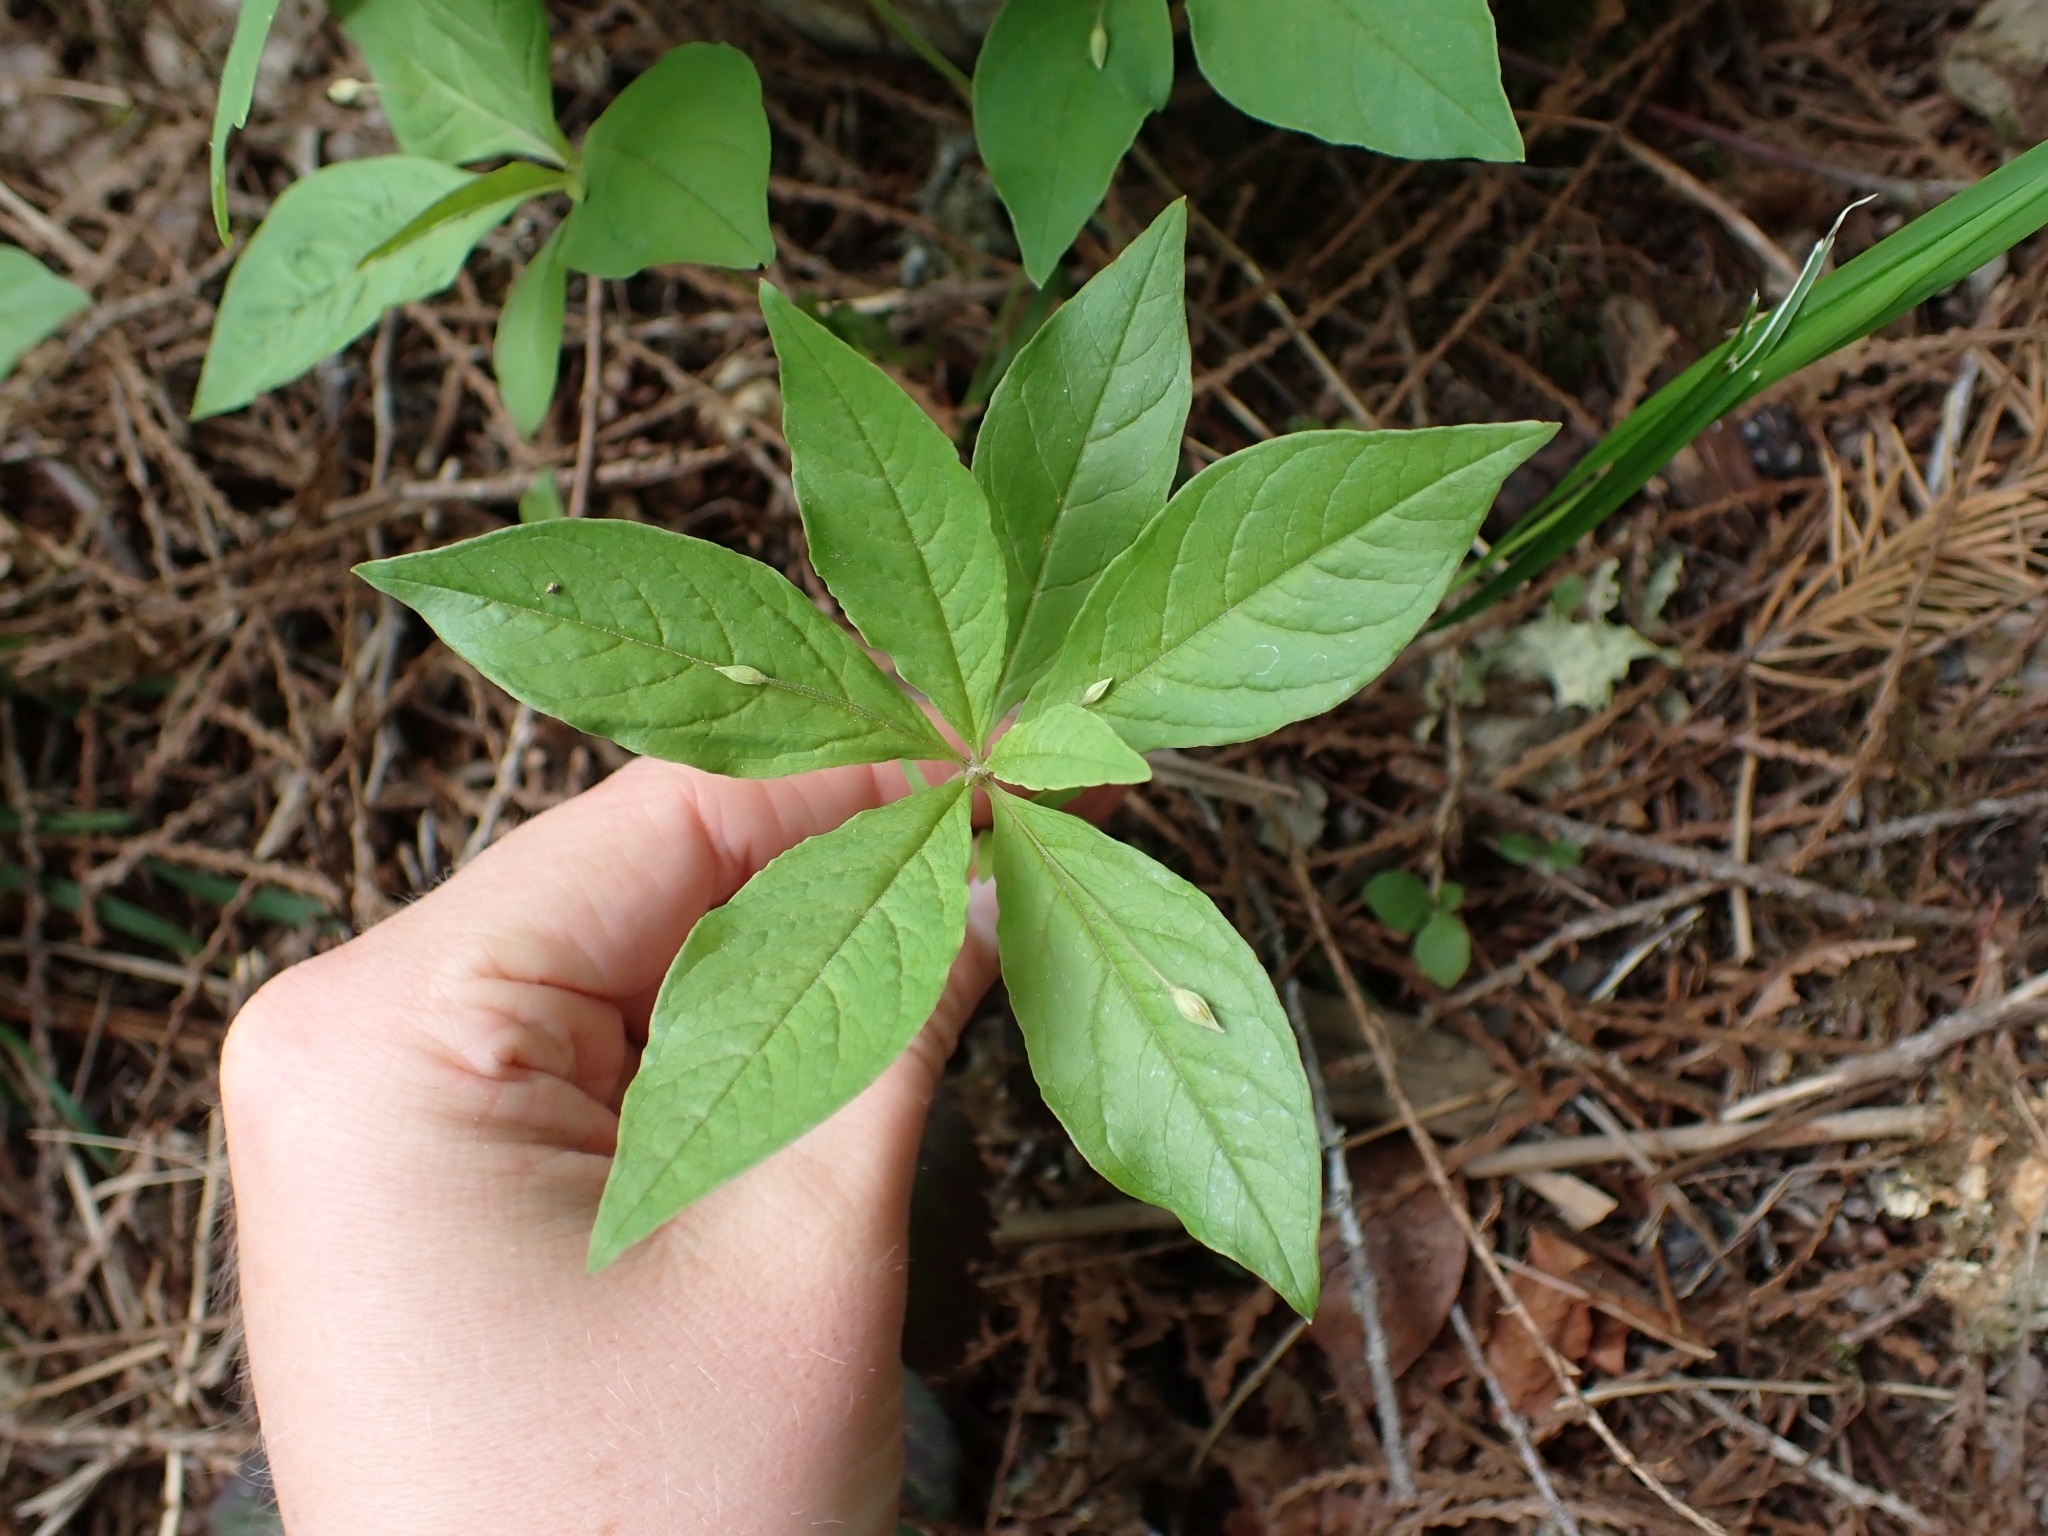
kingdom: Plantae
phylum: Tracheophyta
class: Magnoliopsida
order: Ericales
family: Primulaceae
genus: Lysimachia
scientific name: Lysimachia latifolia
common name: Pacific starflower
